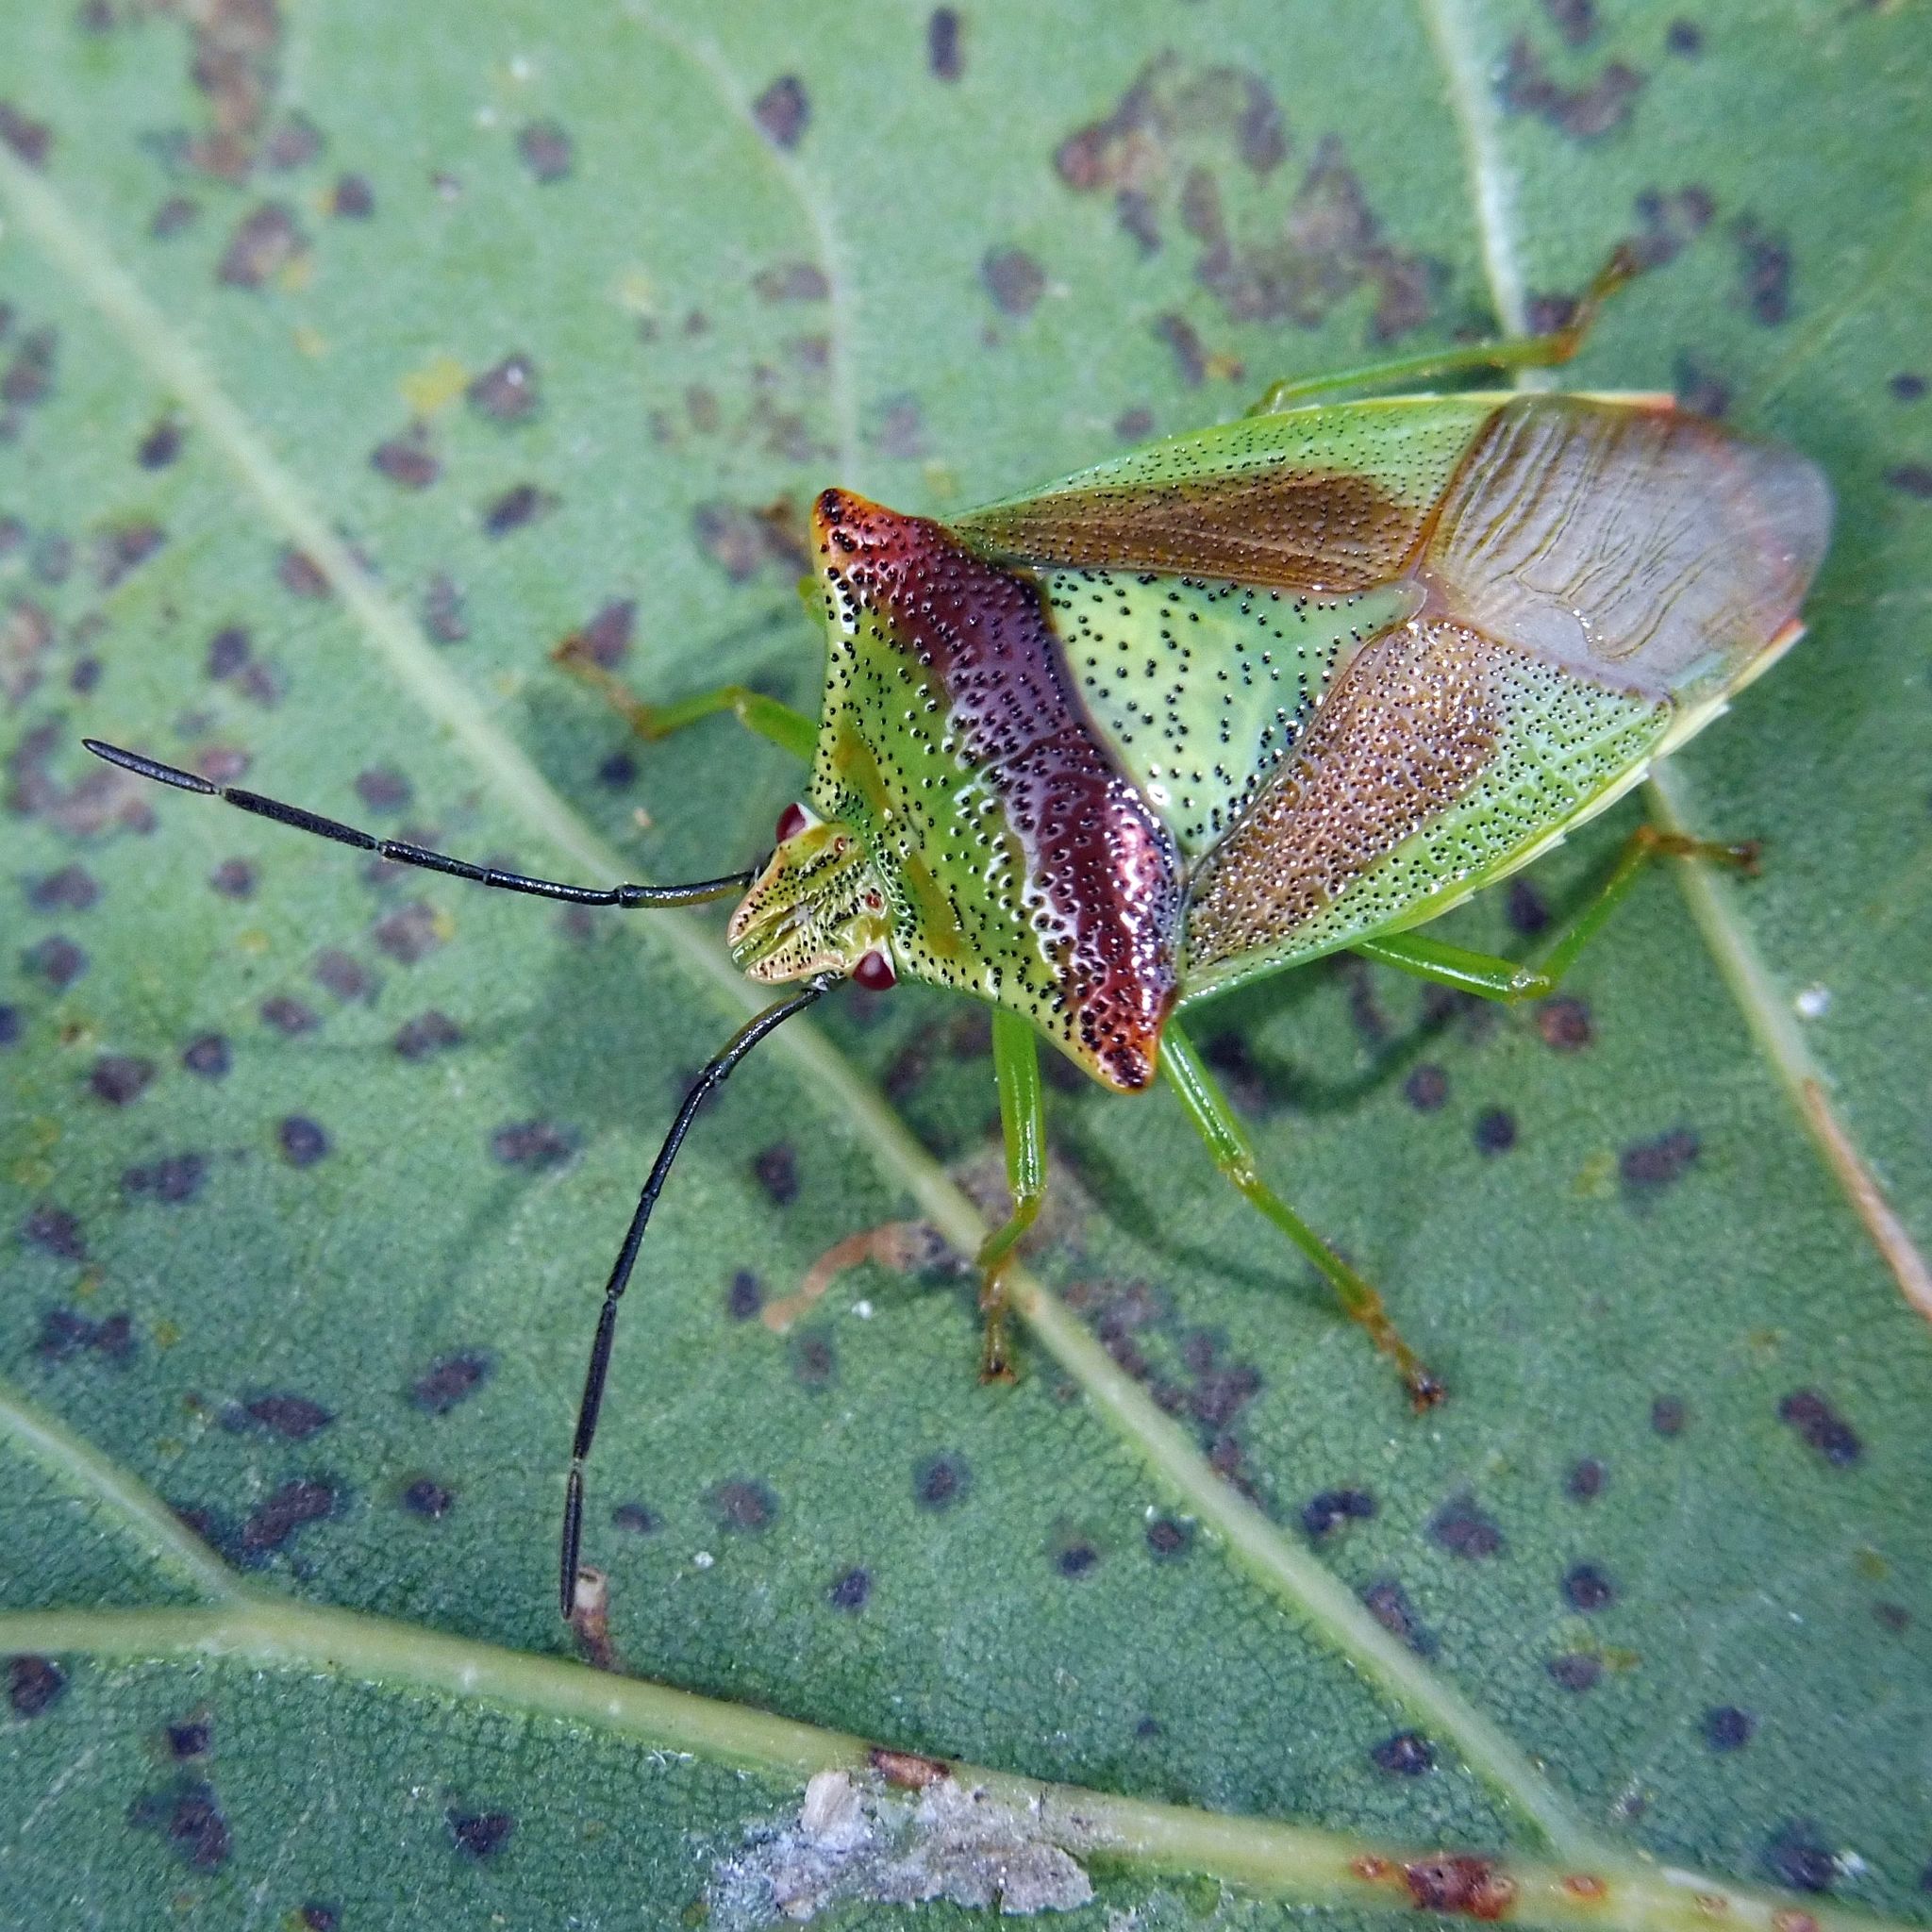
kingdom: Animalia
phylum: Arthropoda
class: Insecta
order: Hemiptera
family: Acanthosomatidae
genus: Acanthosoma
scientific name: Acanthosoma haemorrhoidale
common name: Hawthorn shieldbug
